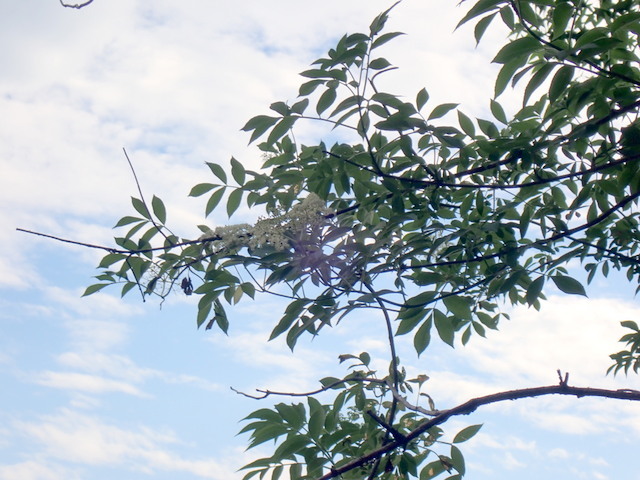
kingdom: Plantae
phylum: Tracheophyta
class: Magnoliopsida
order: Dipsacales
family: Viburnaceae
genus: Sambucus
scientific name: Sambucus canadensis
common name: American elder
